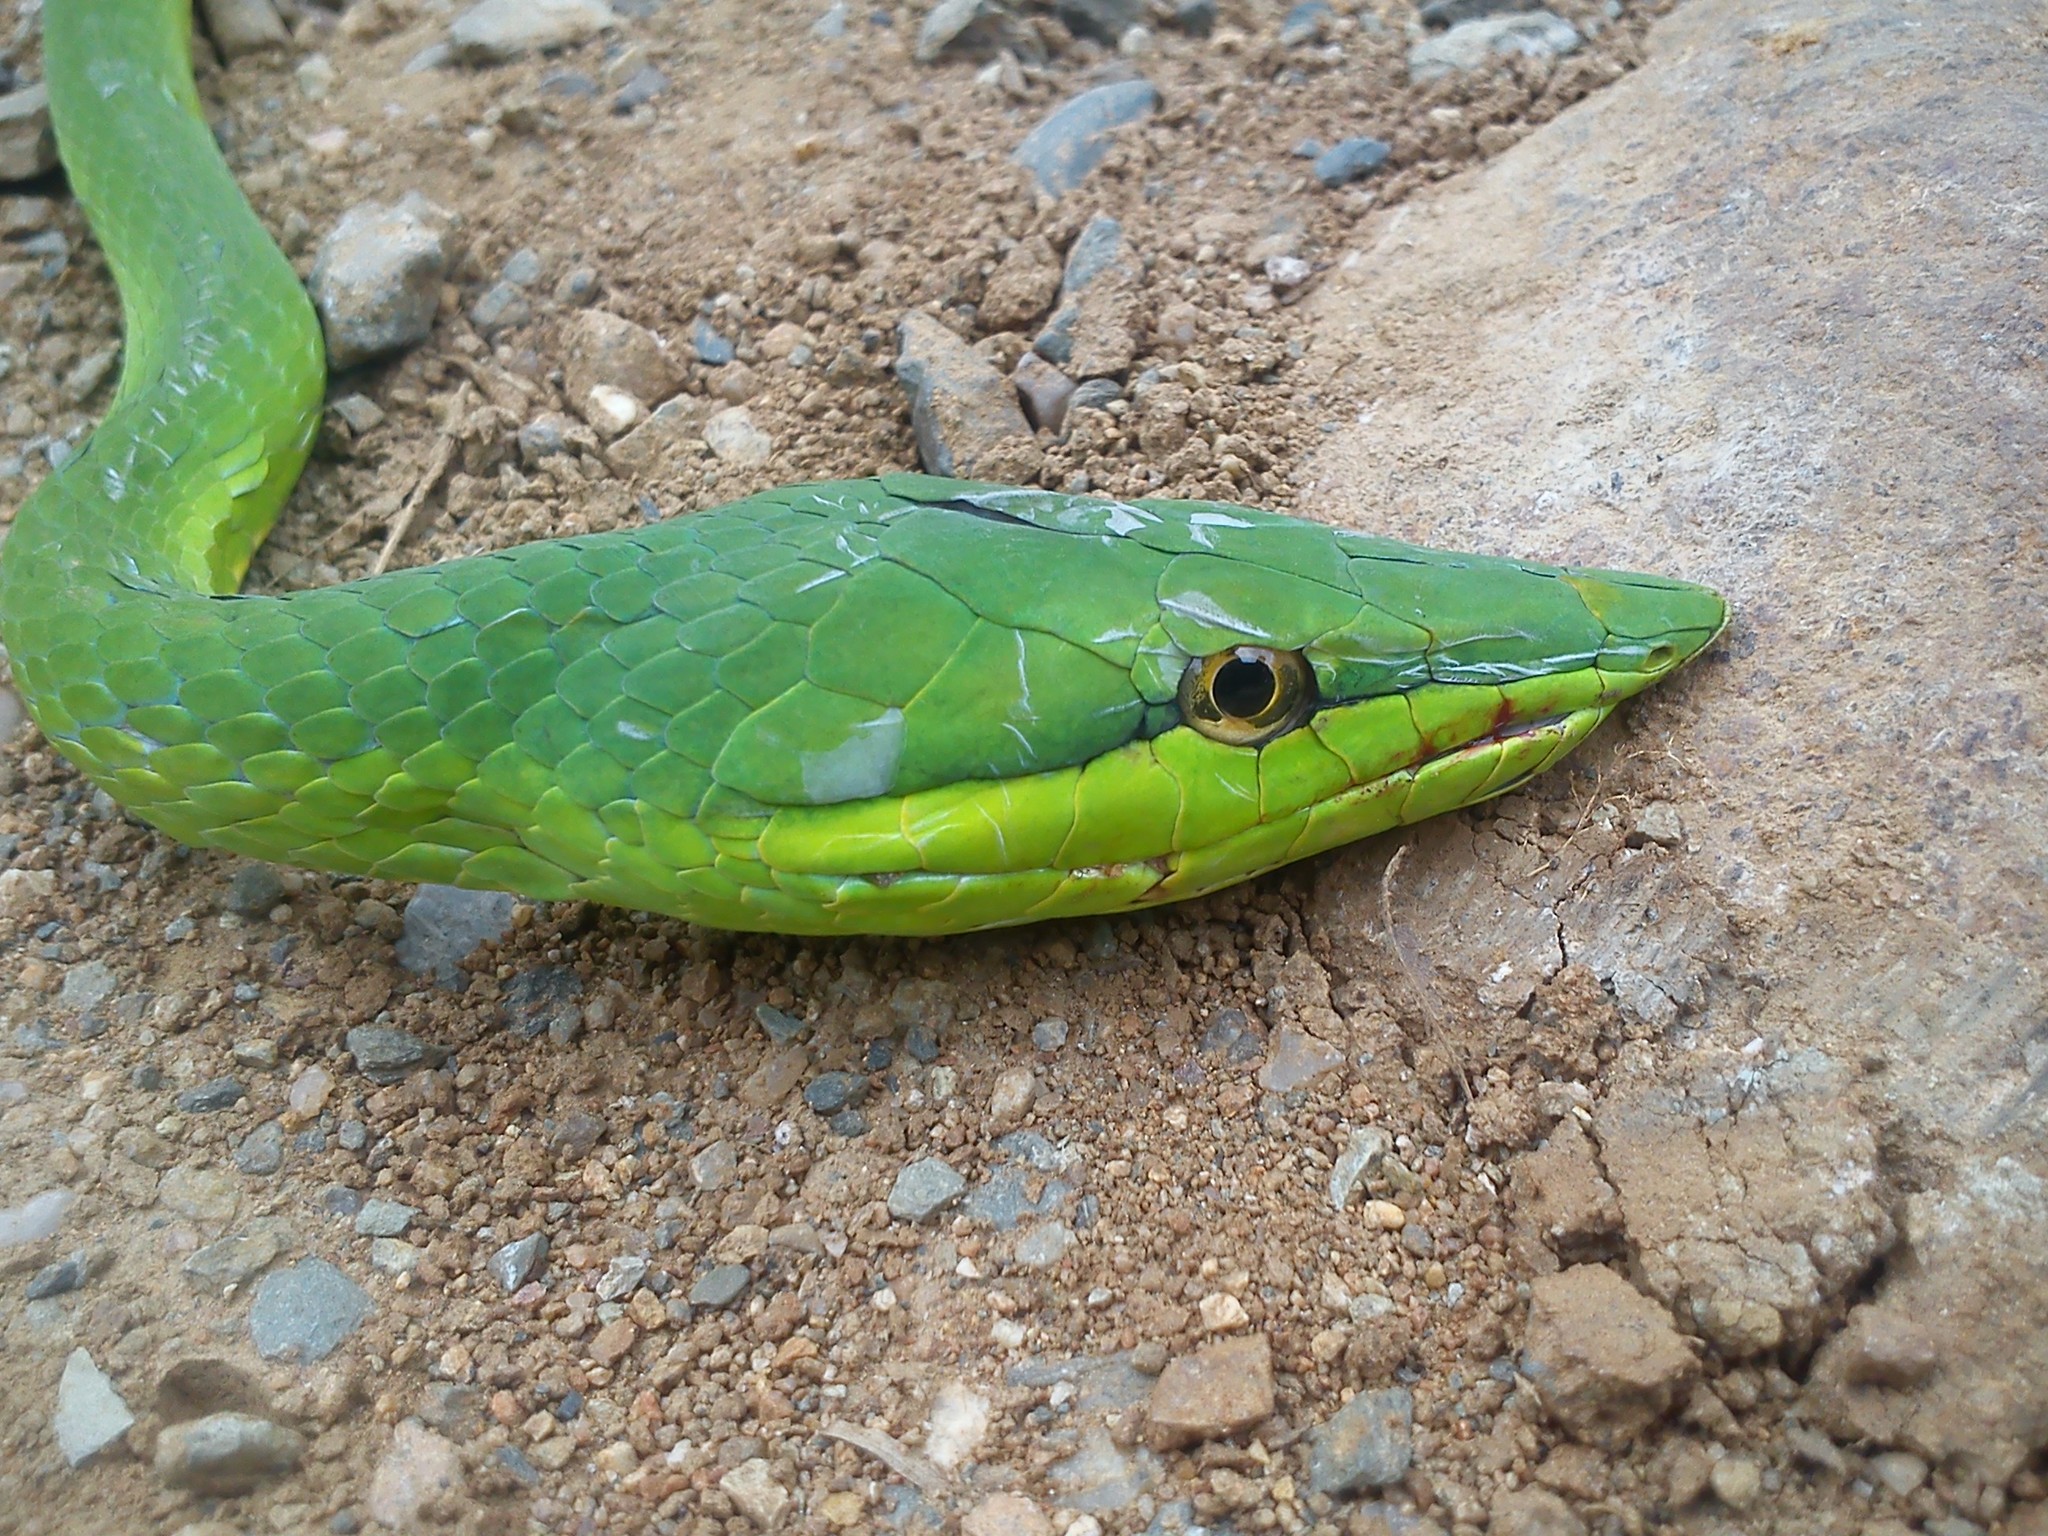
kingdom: Animalia
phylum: Chordata
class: Squamata
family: Colubridae
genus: Oxybelis
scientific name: Oxybelis fulgidus
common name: Green vine snake
